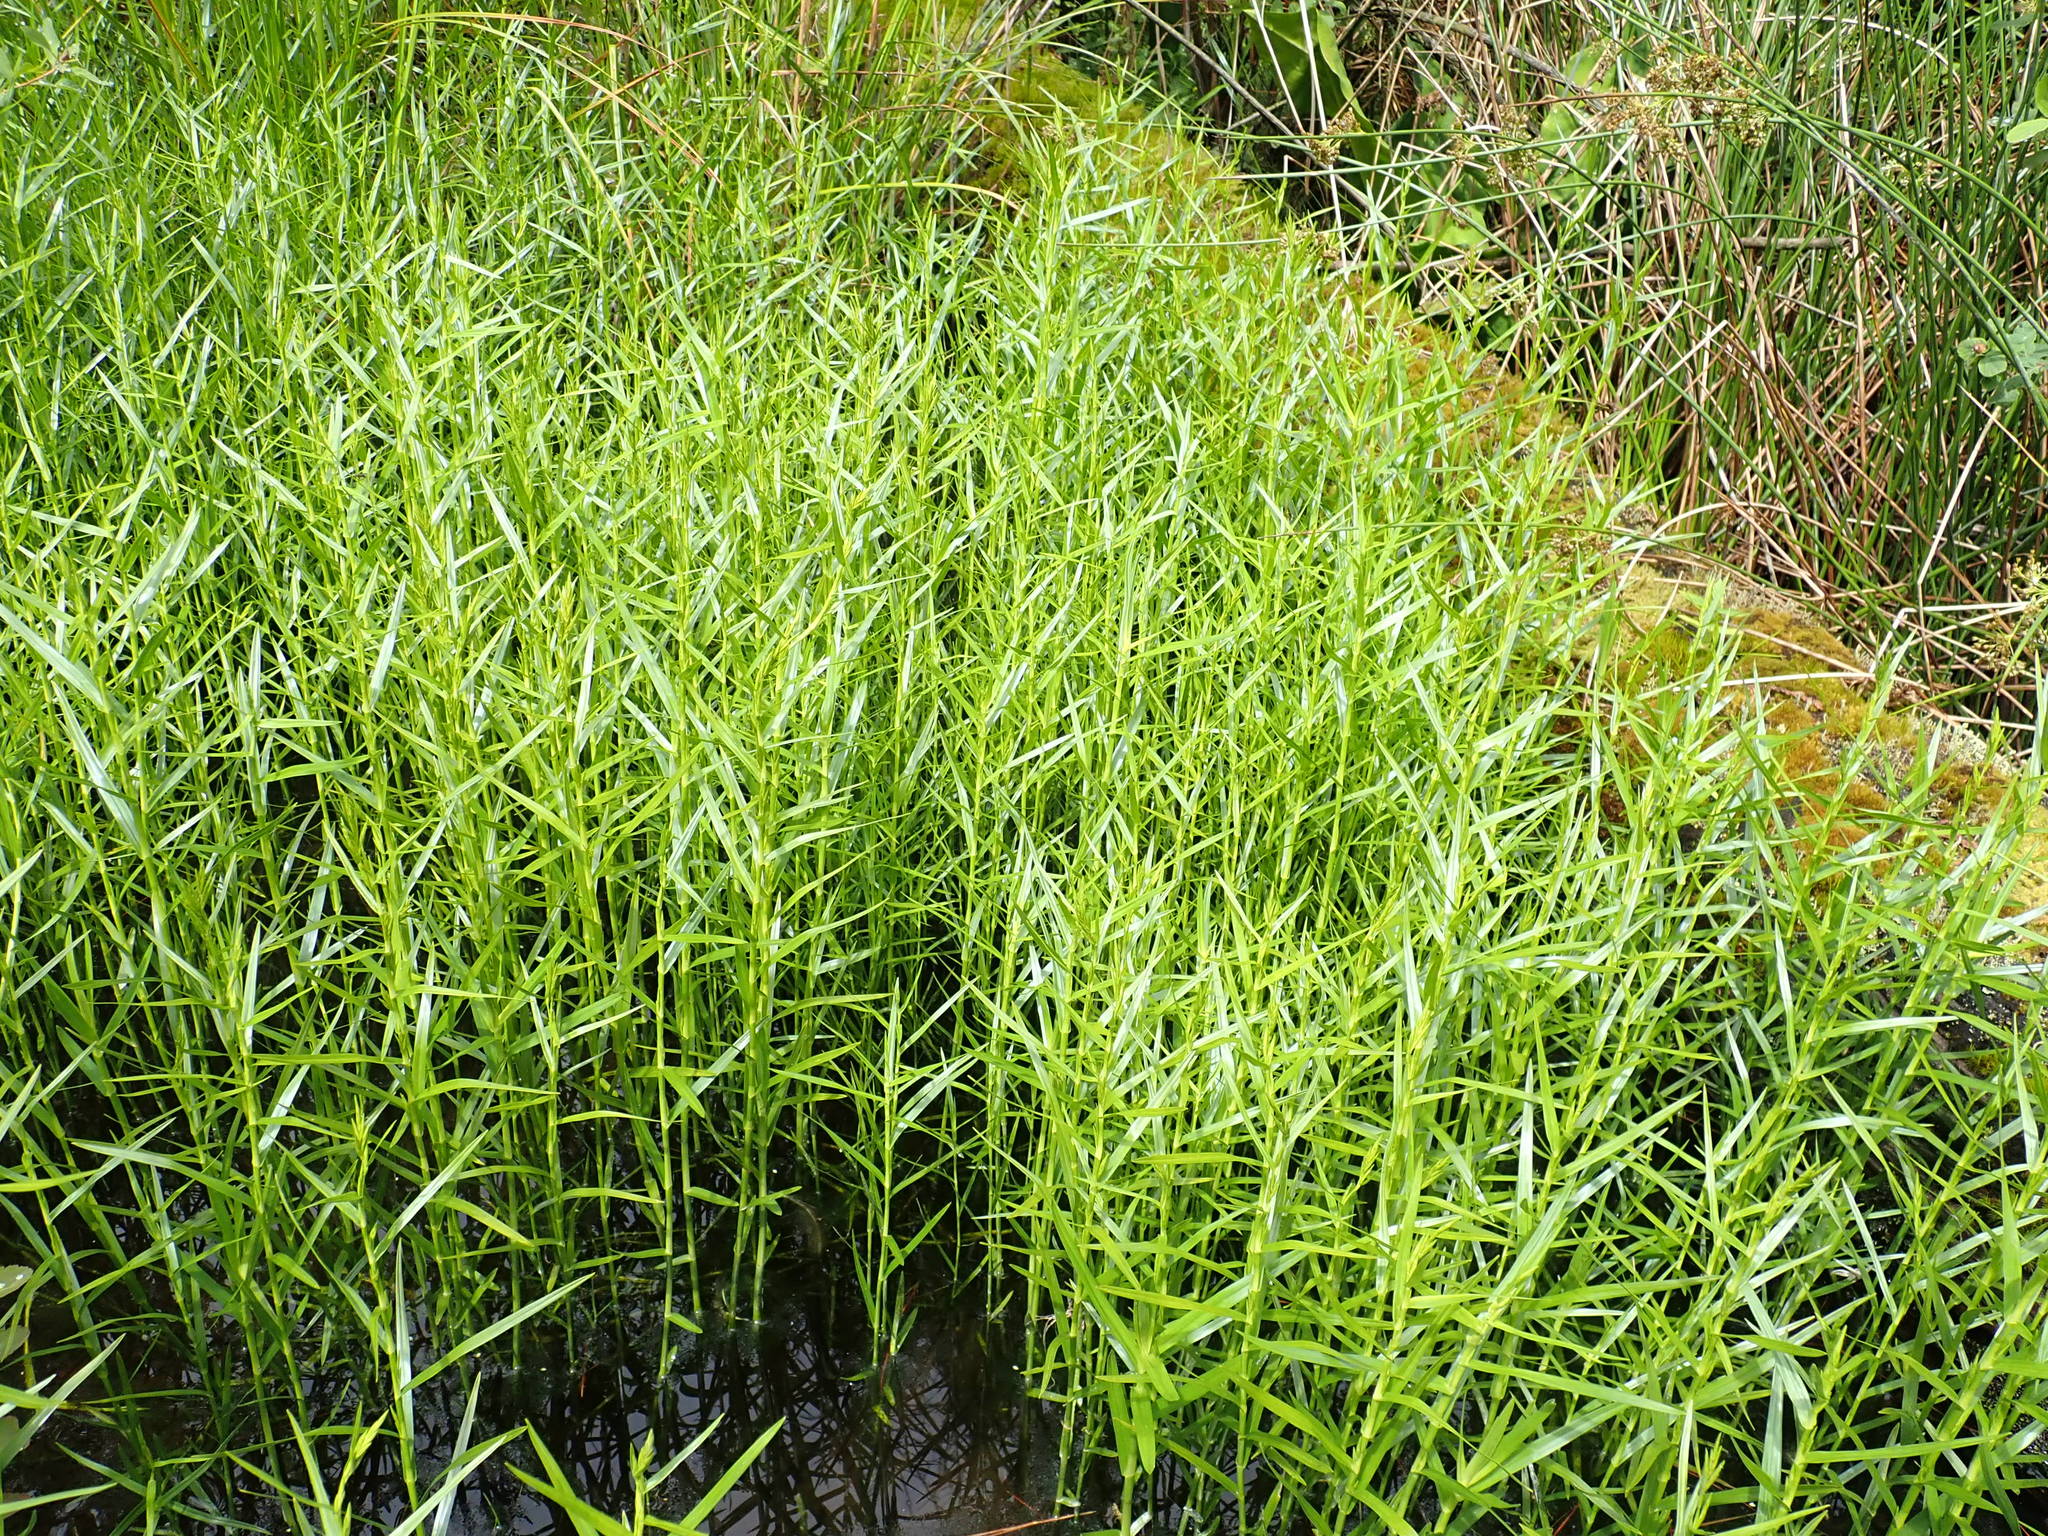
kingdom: Plantae
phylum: Tracheophyta
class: Liliopsida
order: Poales
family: Cyperaceae
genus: Dulichium
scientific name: Dulichium arundinaceum
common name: Three-way sedge
